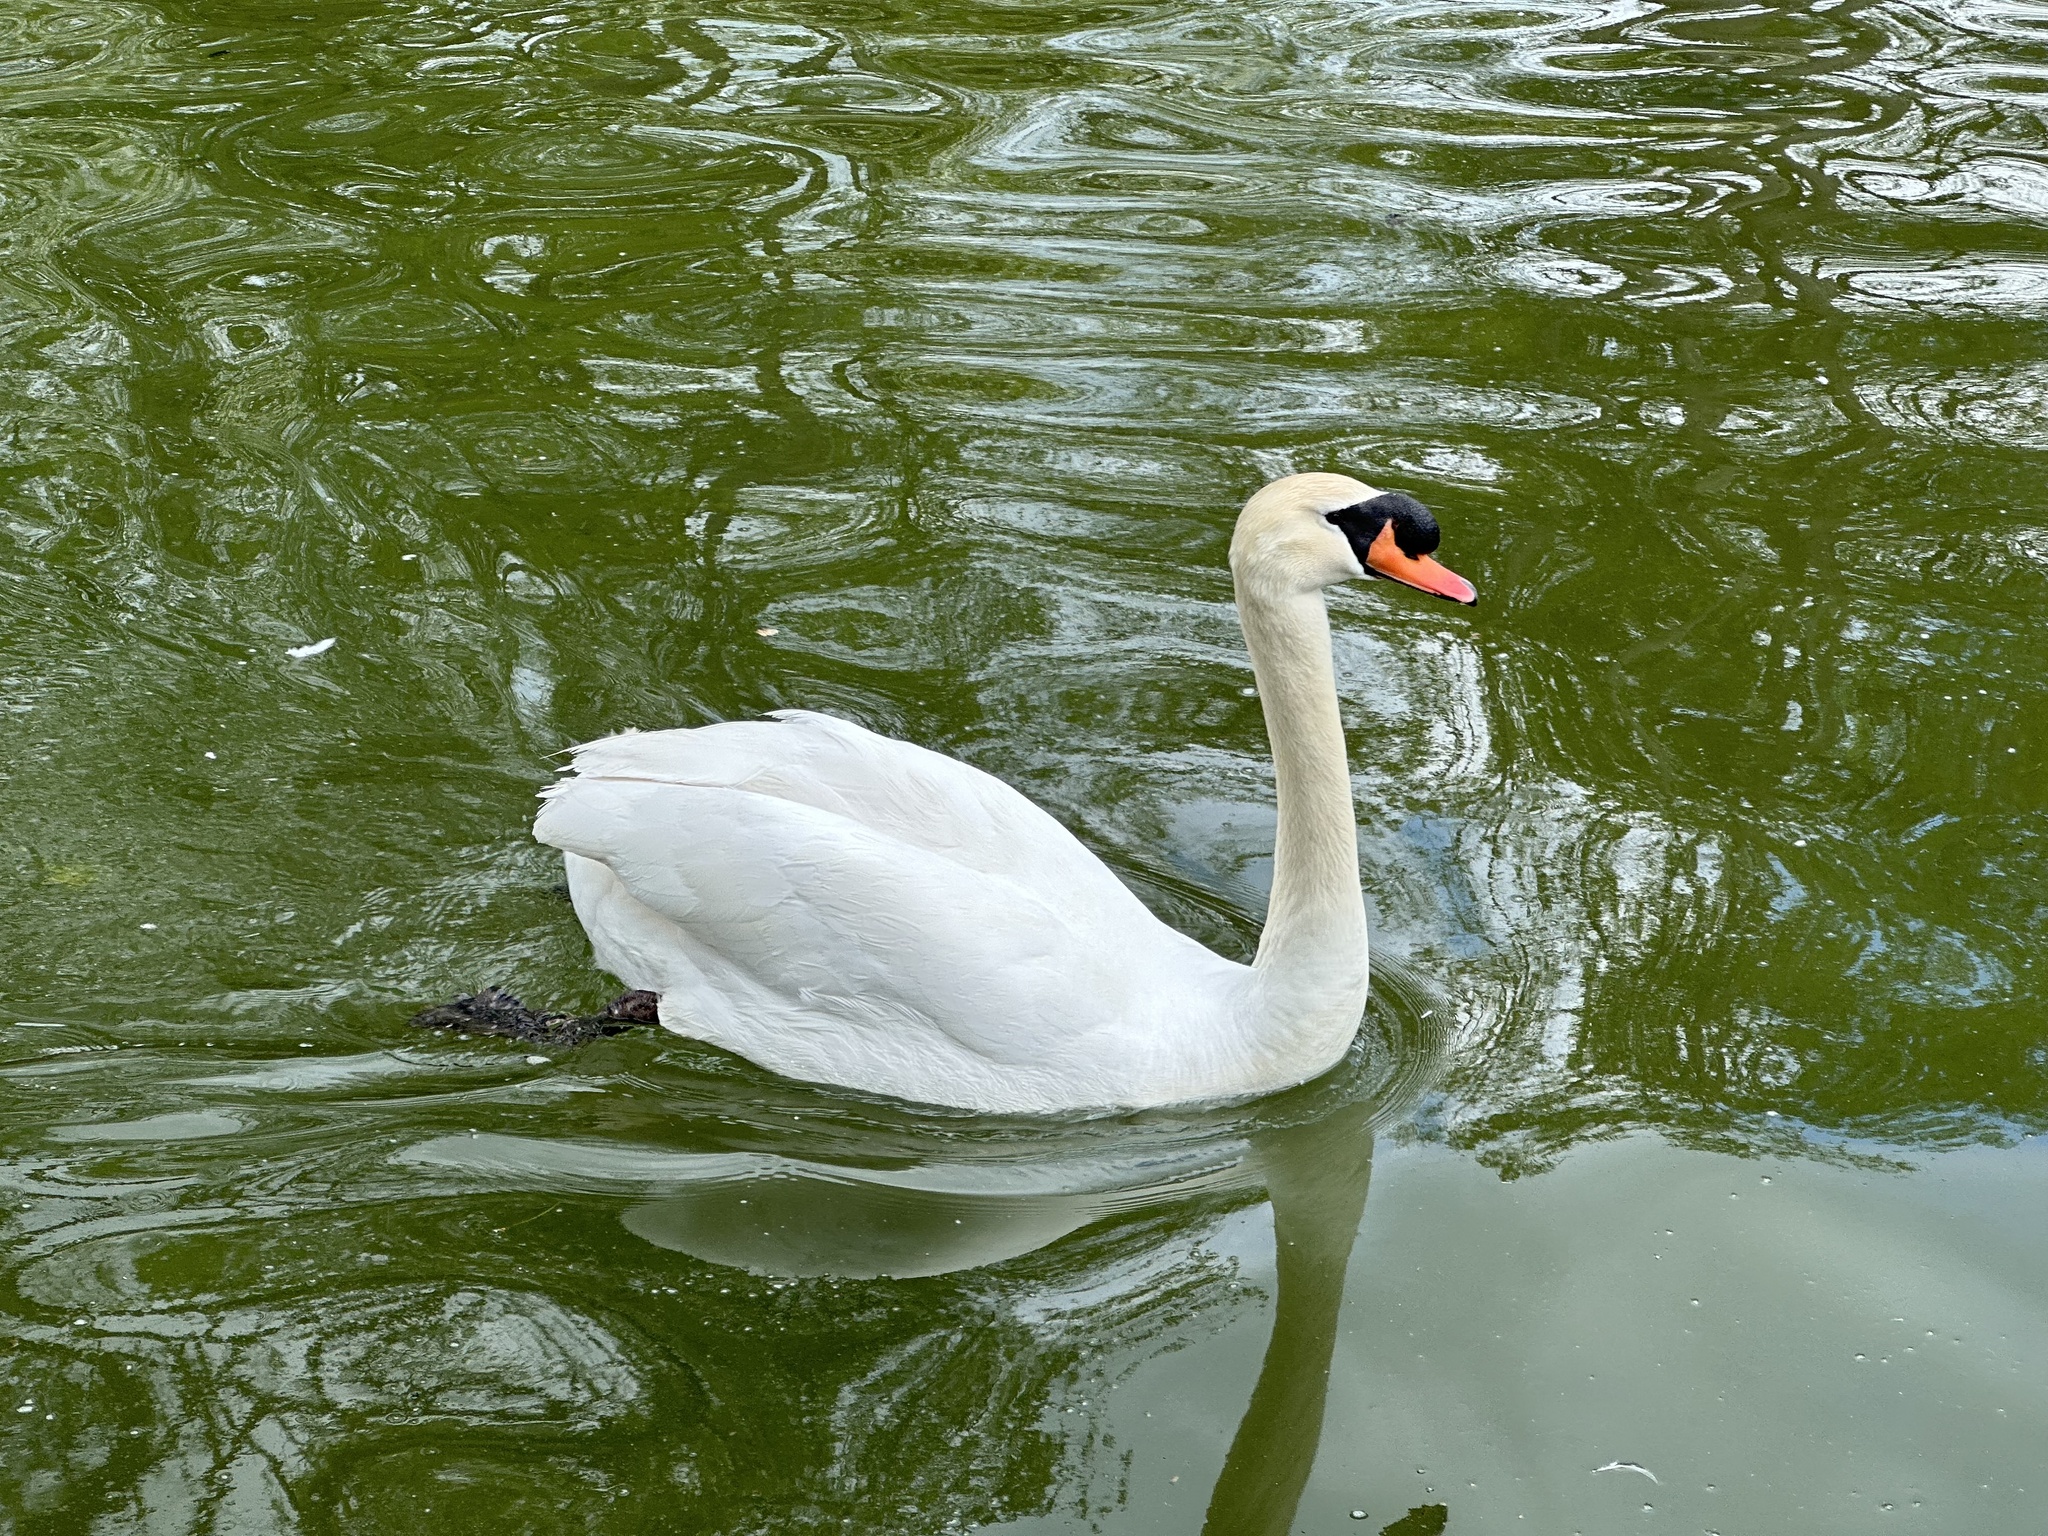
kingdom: Animalia
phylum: Chordata
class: Aves
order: Anseriformes
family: Anatidae
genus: Cygnus
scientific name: Cygnus olor
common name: Mute swan
